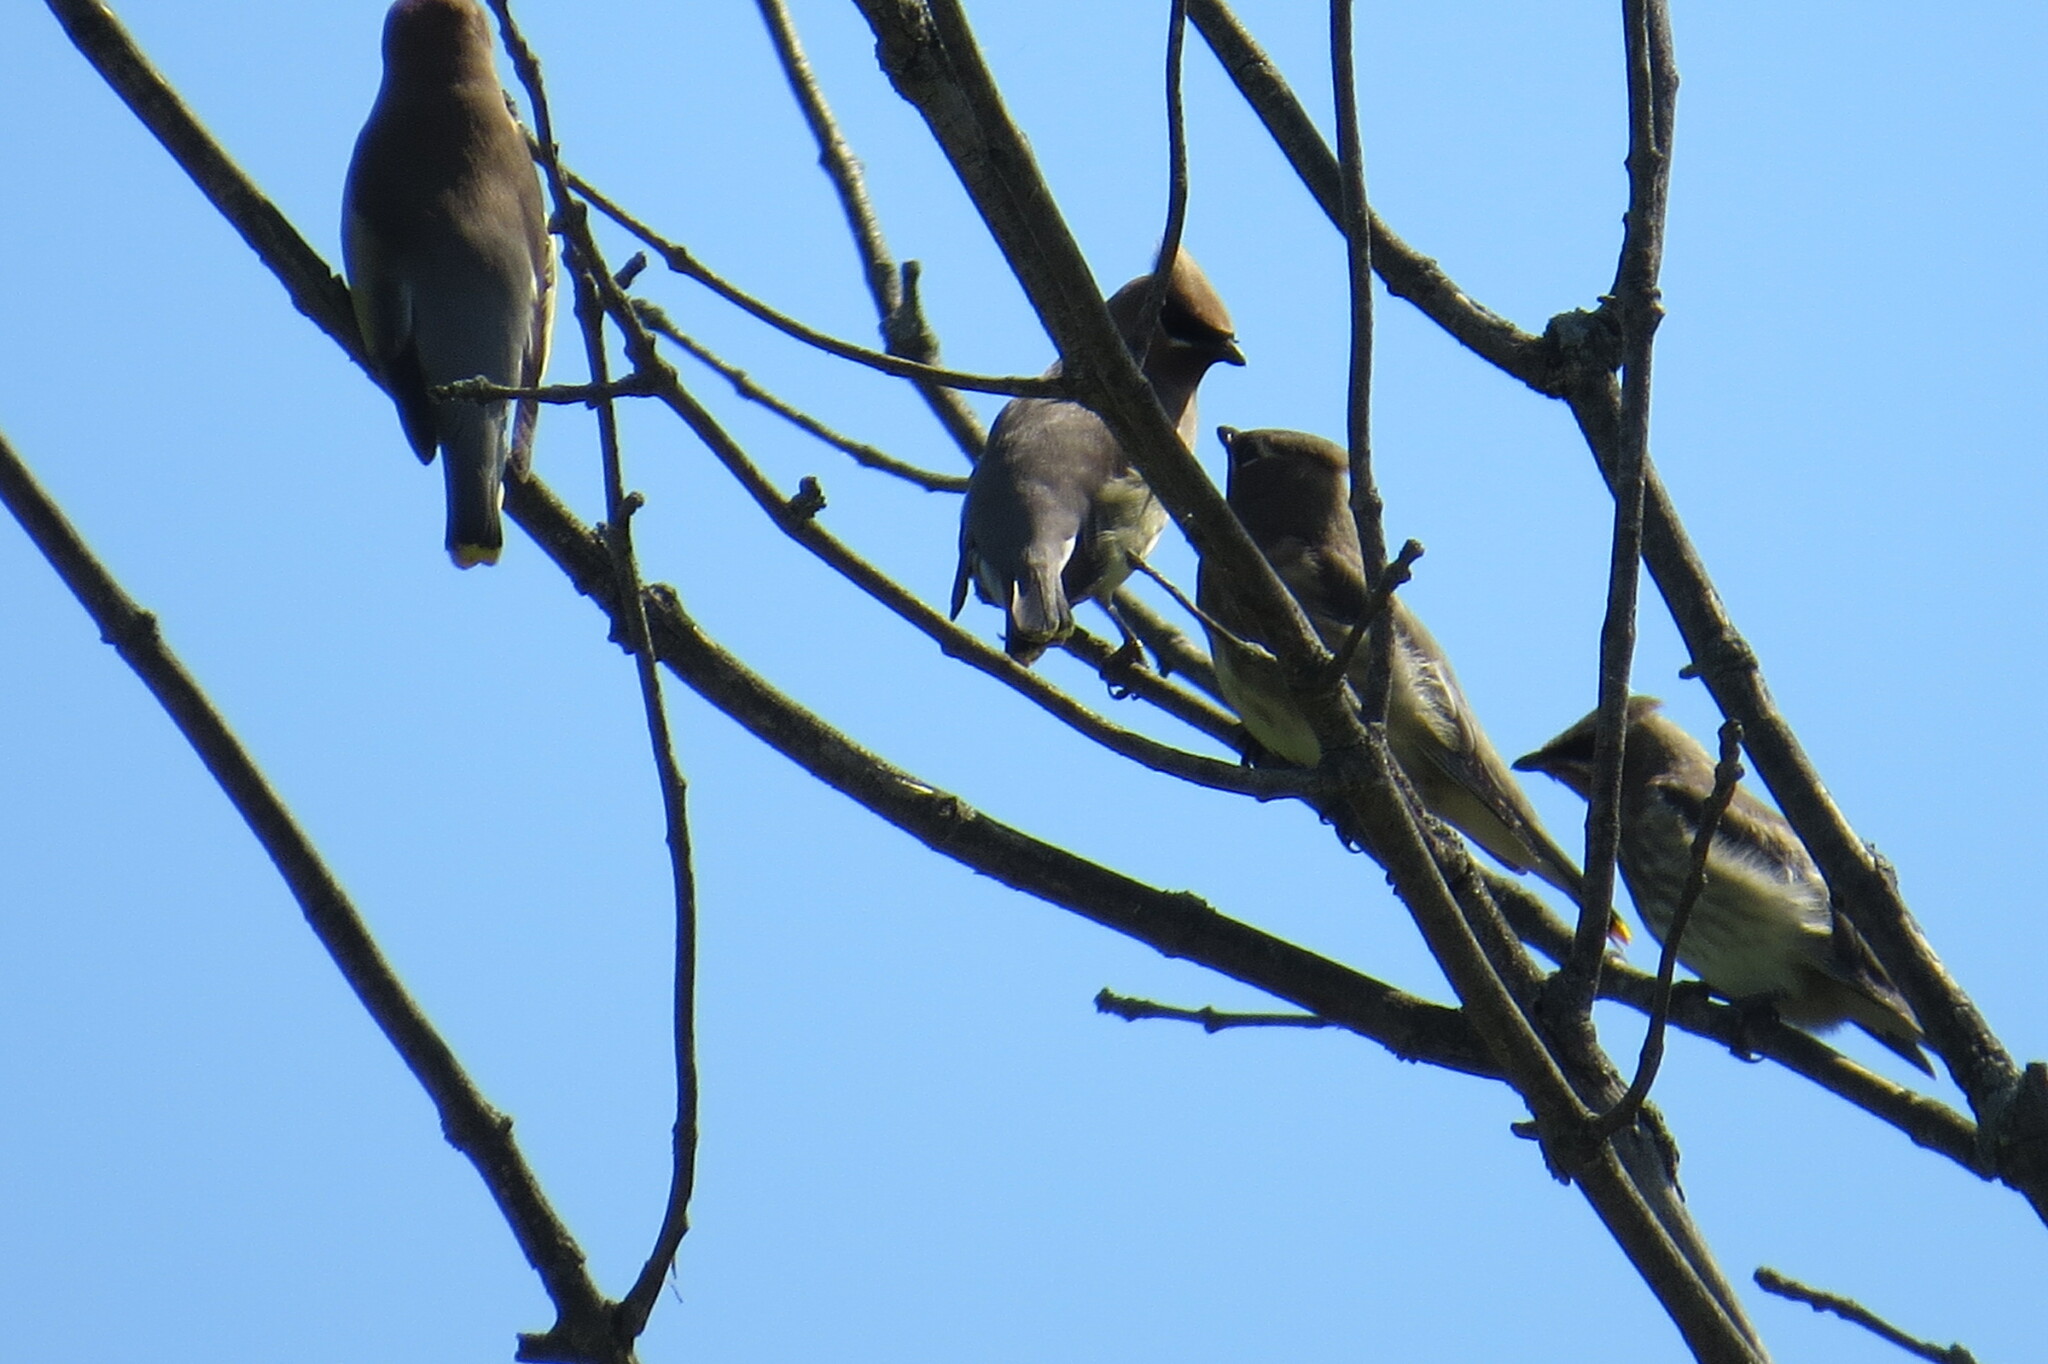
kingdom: Animalia
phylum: Chordata
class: Aves
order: Passeriformes
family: Bombycillidae
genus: Bombycilla
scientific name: Bombycilla cedrorum
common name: Cedar waxwing
